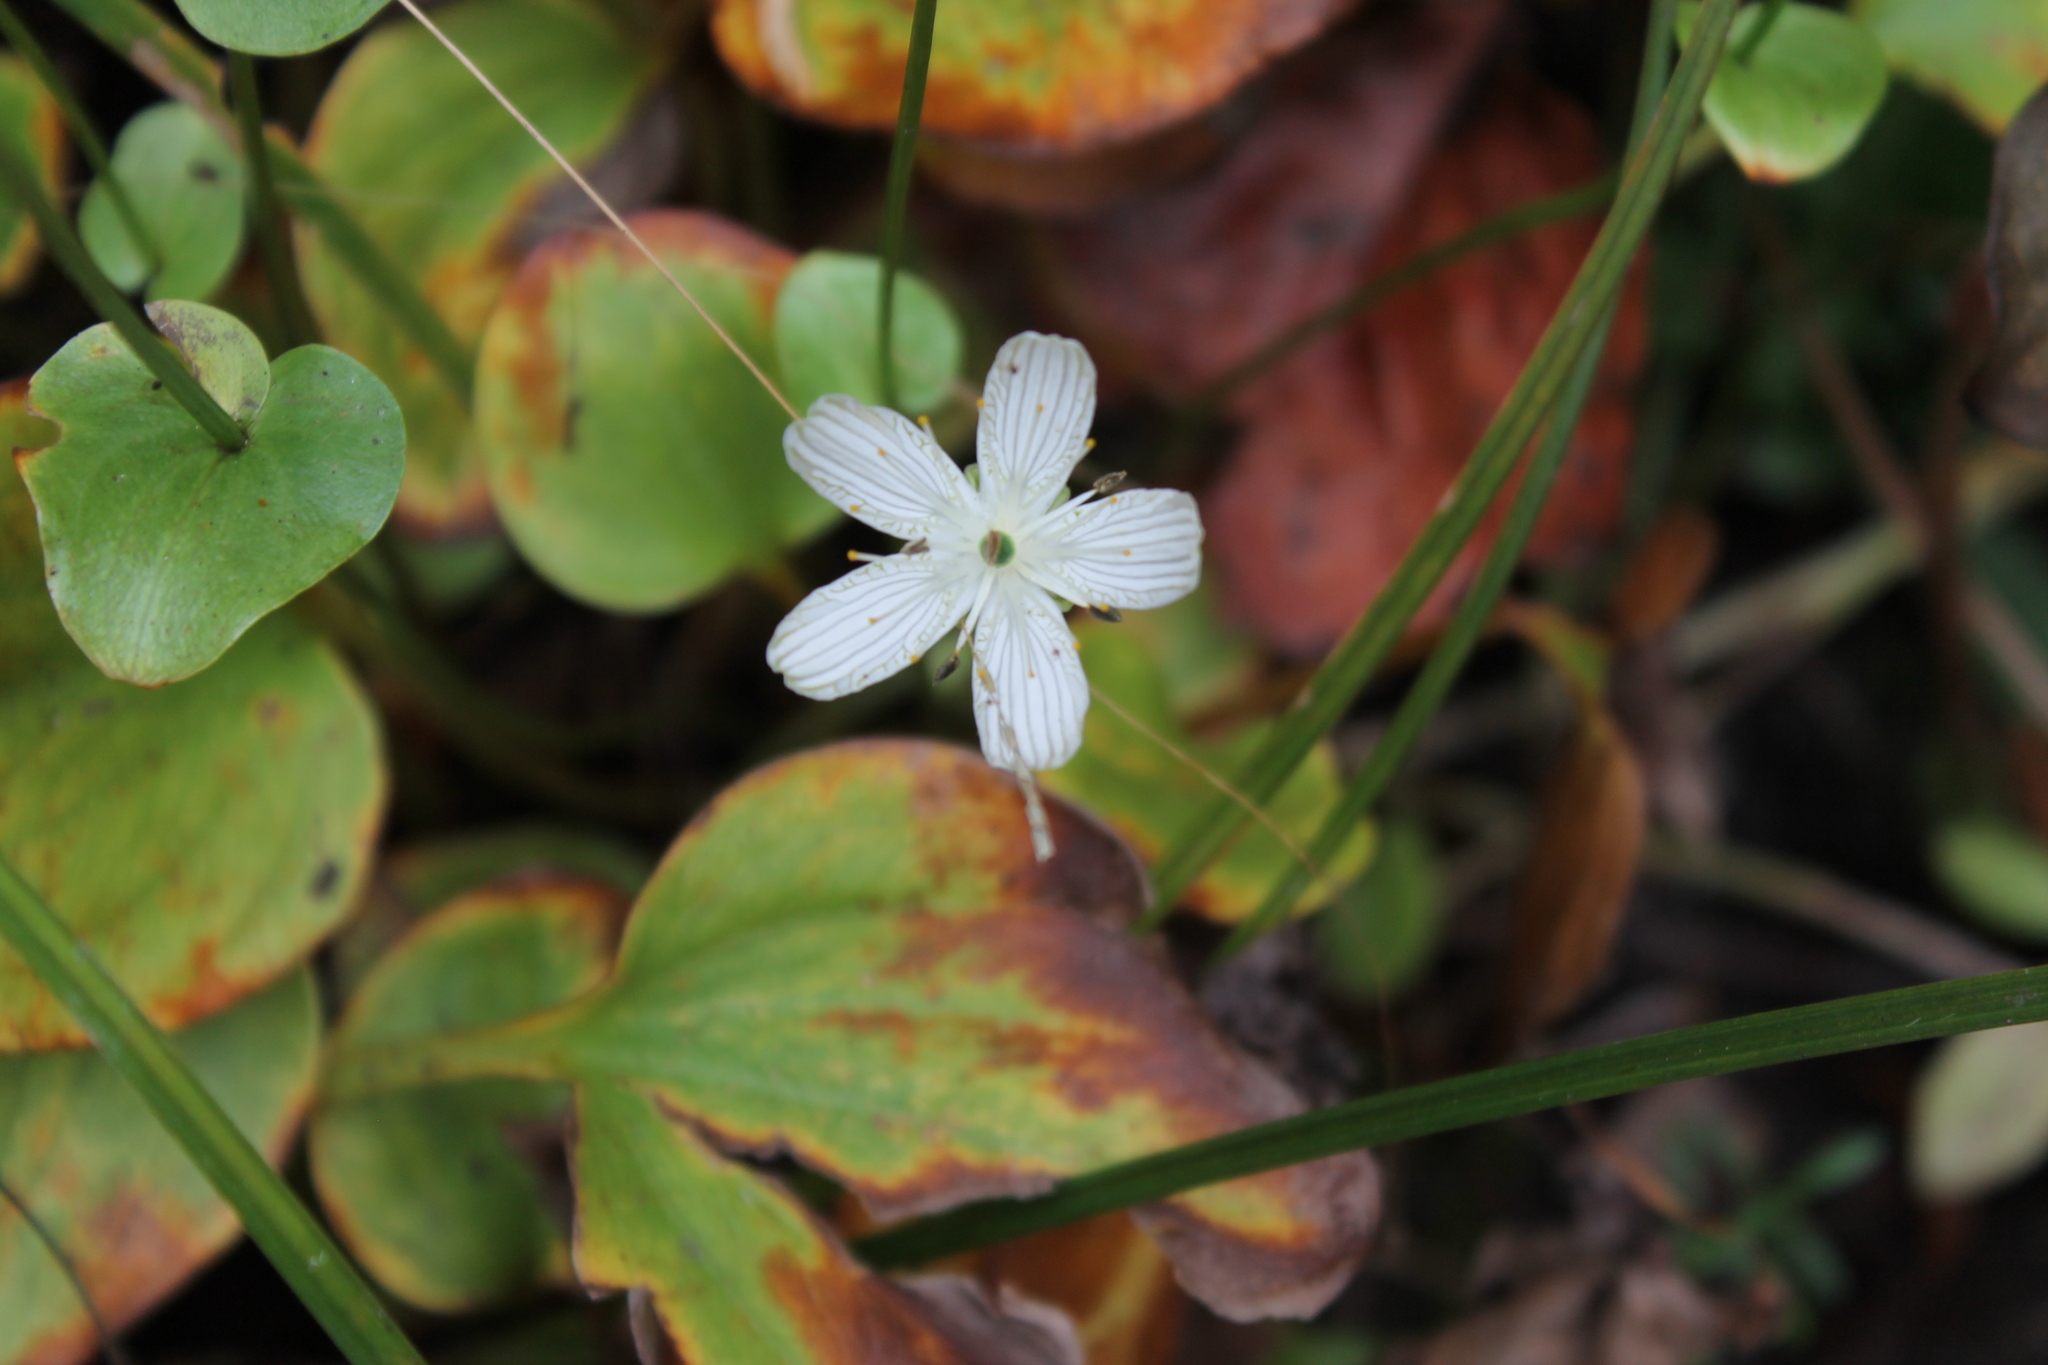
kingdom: Plantae
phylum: Tracheophyta
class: Magnoliopsida
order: Celastrales
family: Parnassiaceae
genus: Parnassia
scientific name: Parnassia grandifolia
